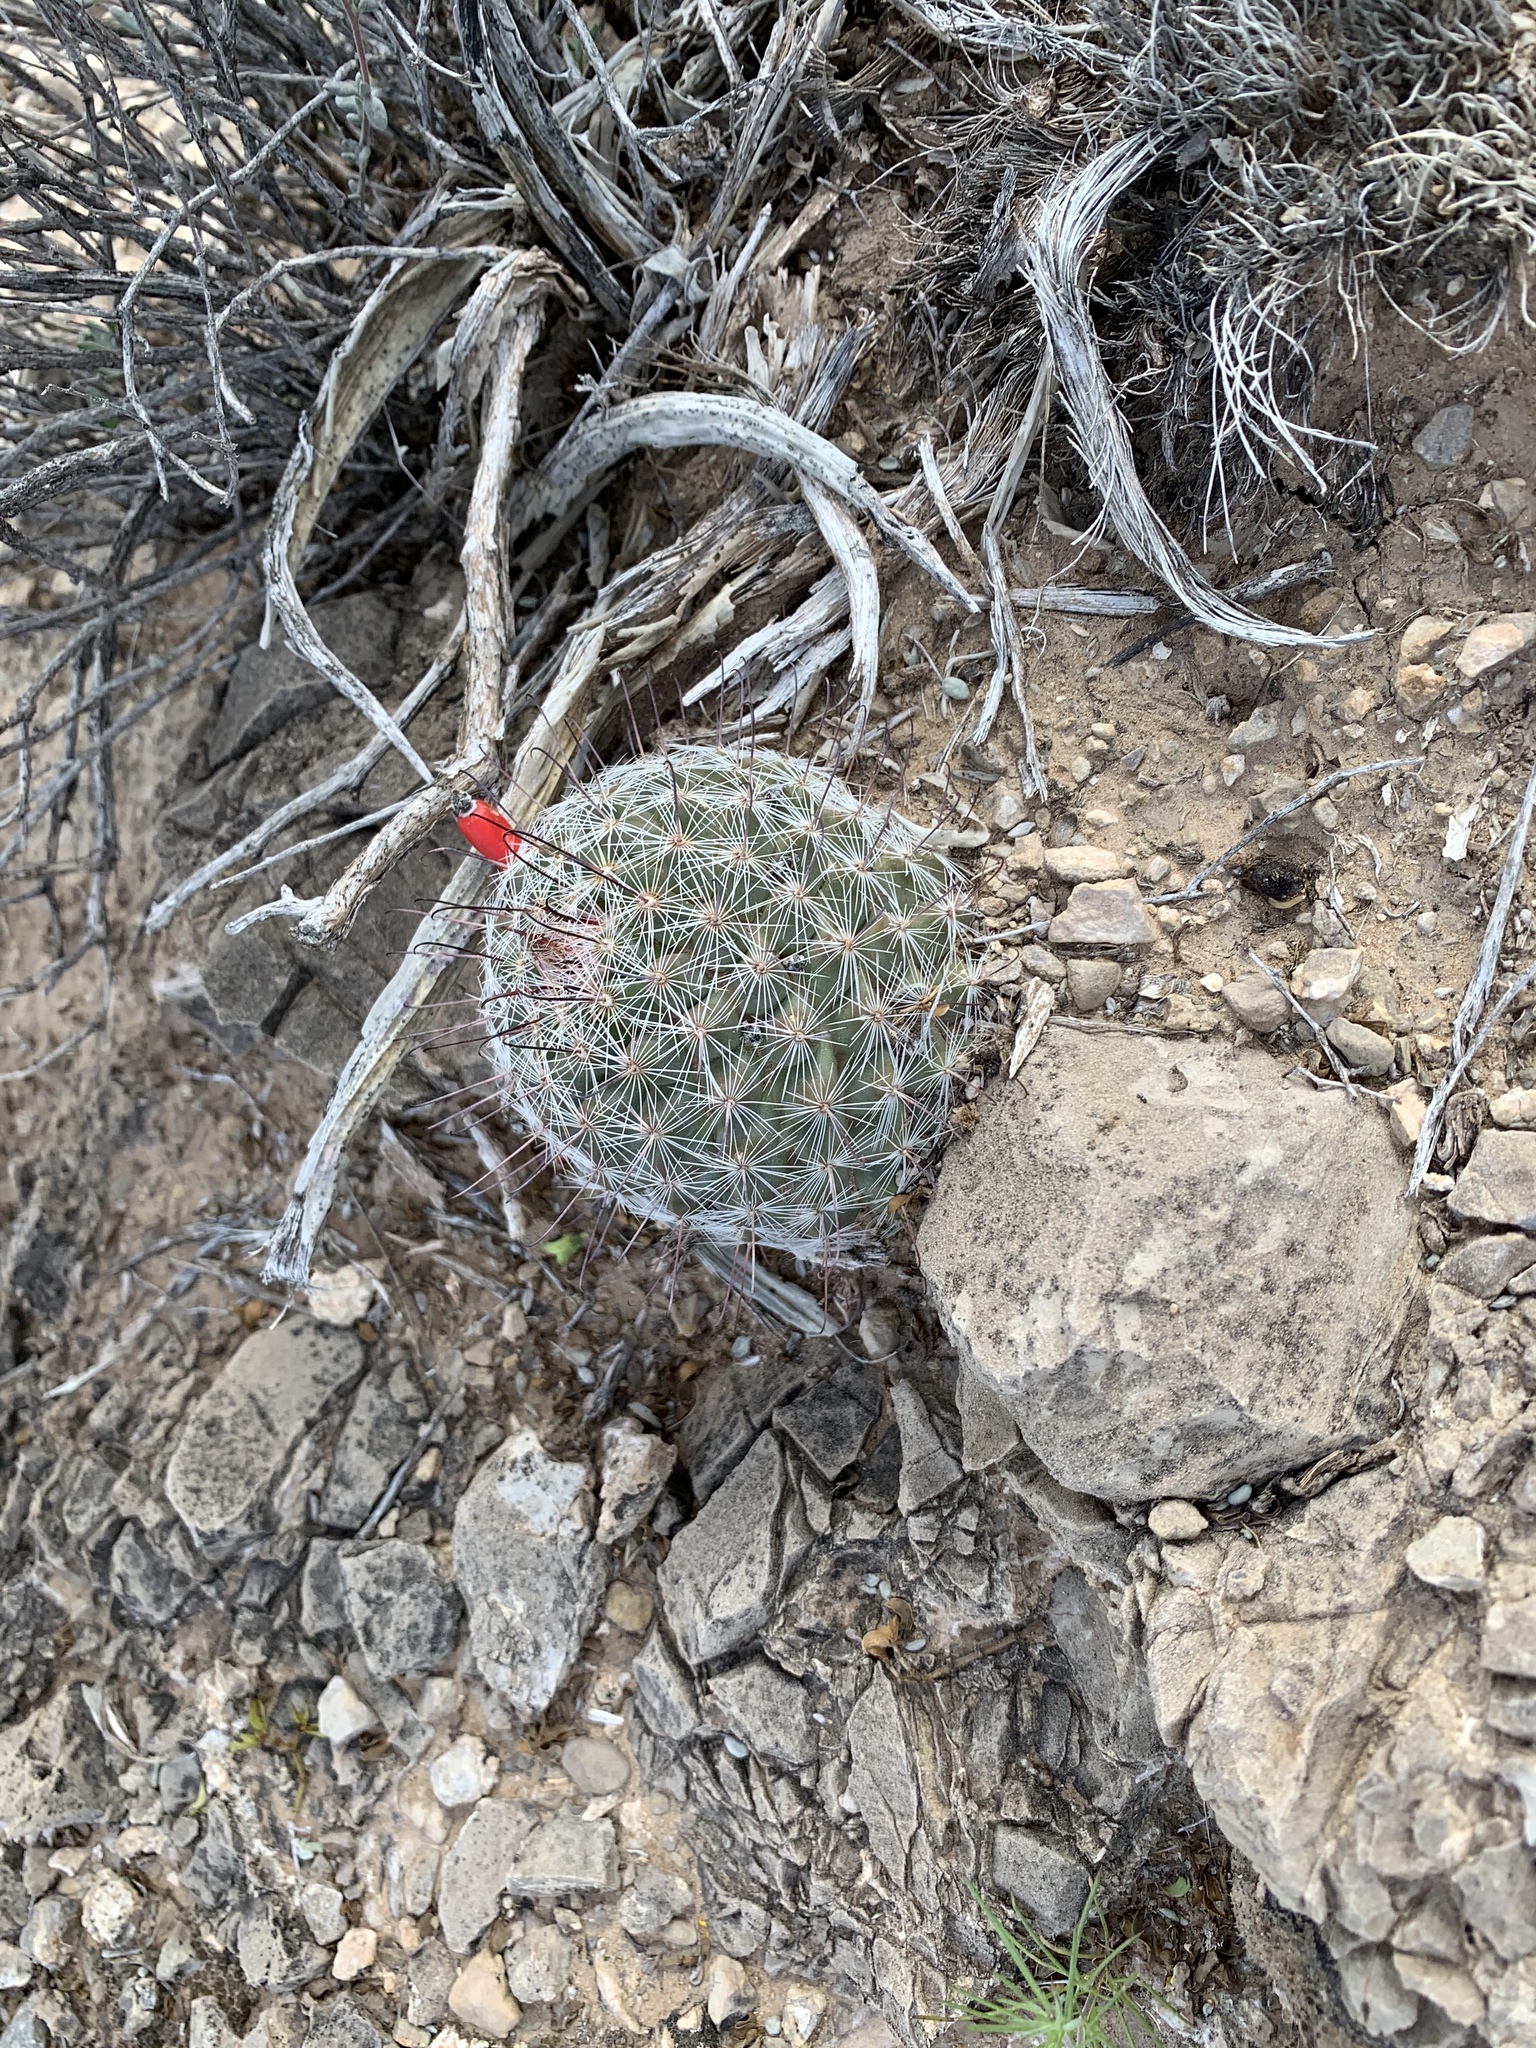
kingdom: Plantae
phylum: Tracheophyta
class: Magnoliopsida
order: Caryophyllales
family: Cactaceae
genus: Cochemiea
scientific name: Cochemiea grahamii
